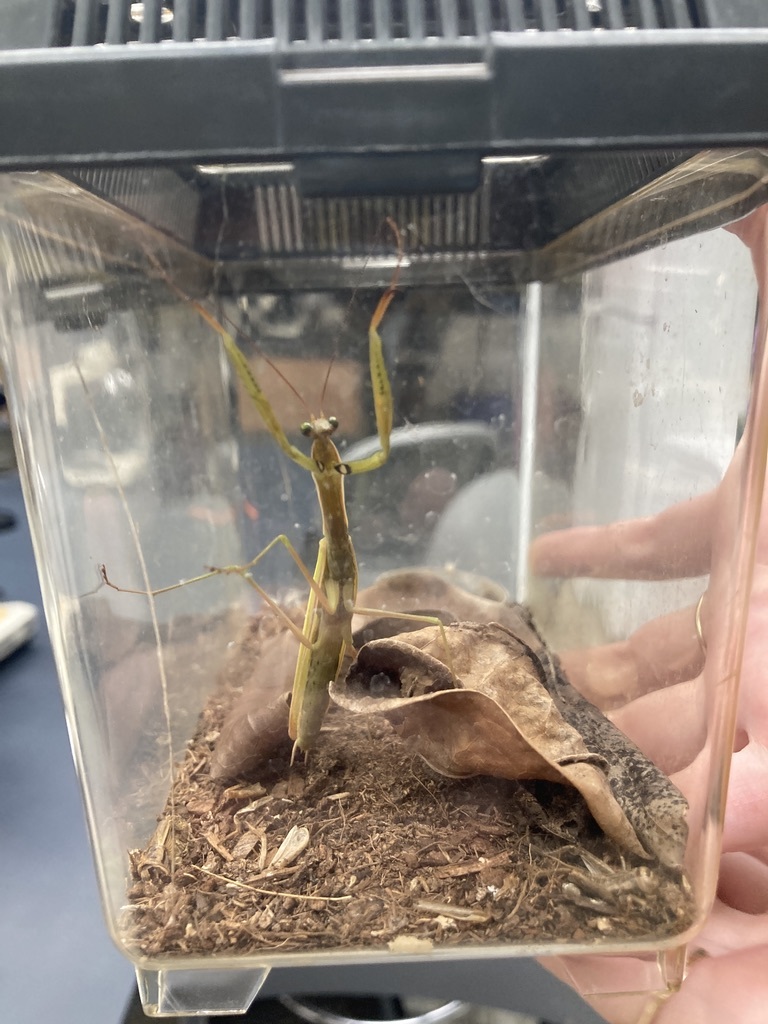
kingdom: Animalia
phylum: Arthropoda
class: Insecta
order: Mantodea
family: Mantidae
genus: Mantis
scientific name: Mantis religiosa
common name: Praying mantis
